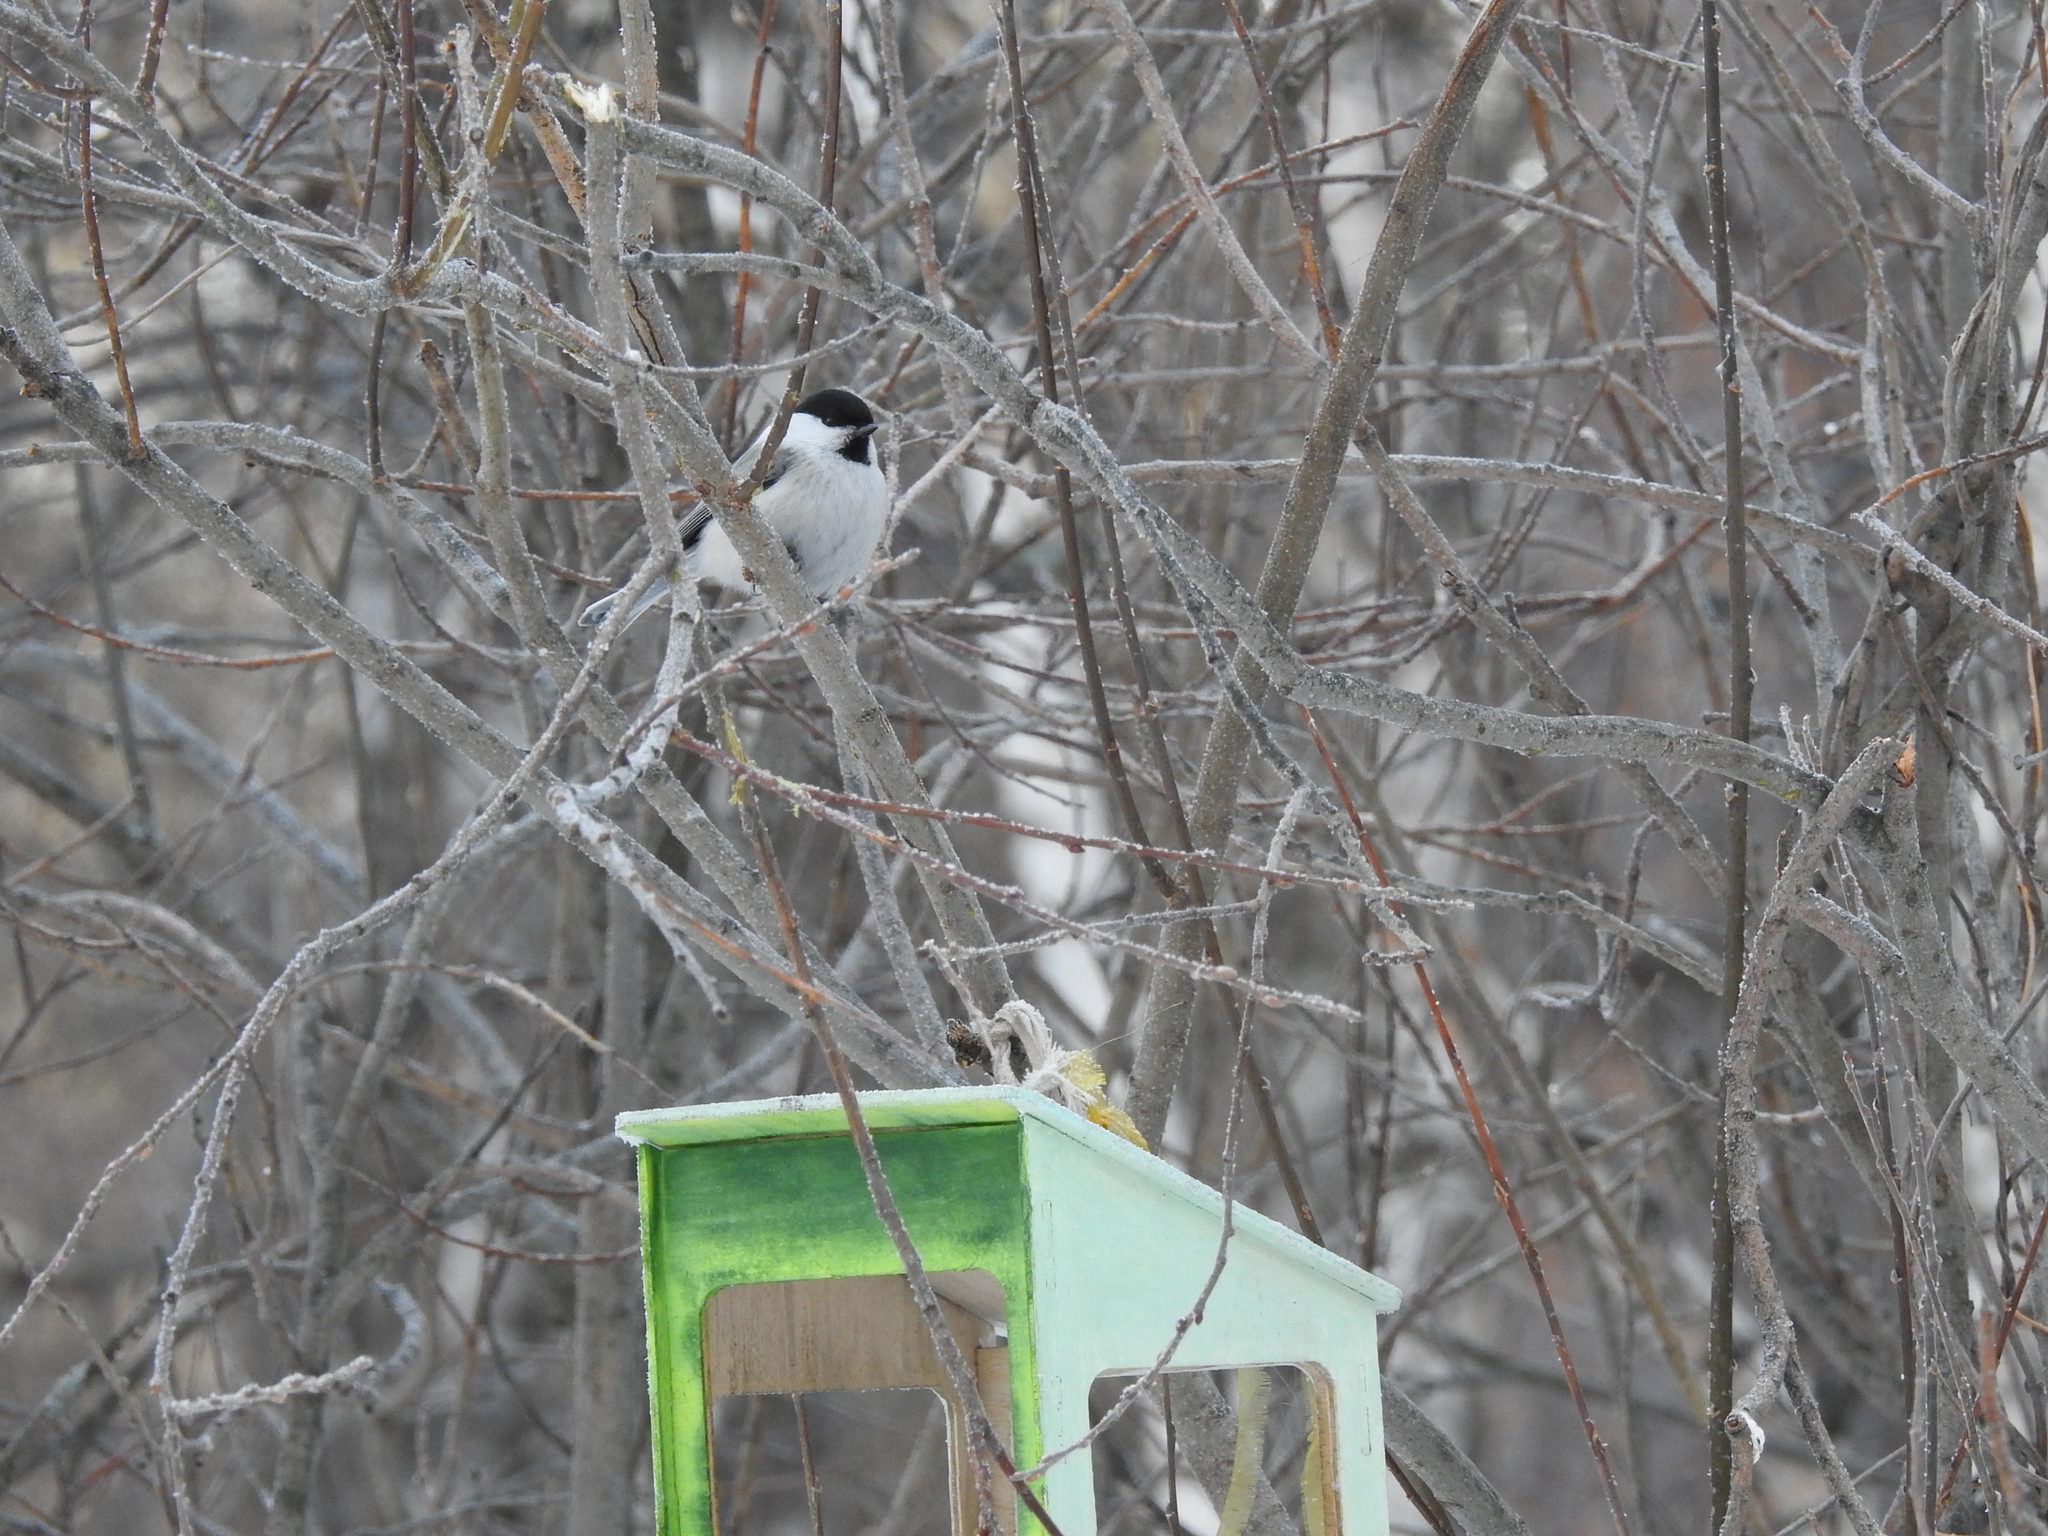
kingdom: Animalia
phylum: Chordata
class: Aves
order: Passeriformes
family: Paridae
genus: Poecile
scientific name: Poecile montanus
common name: Willow tit
